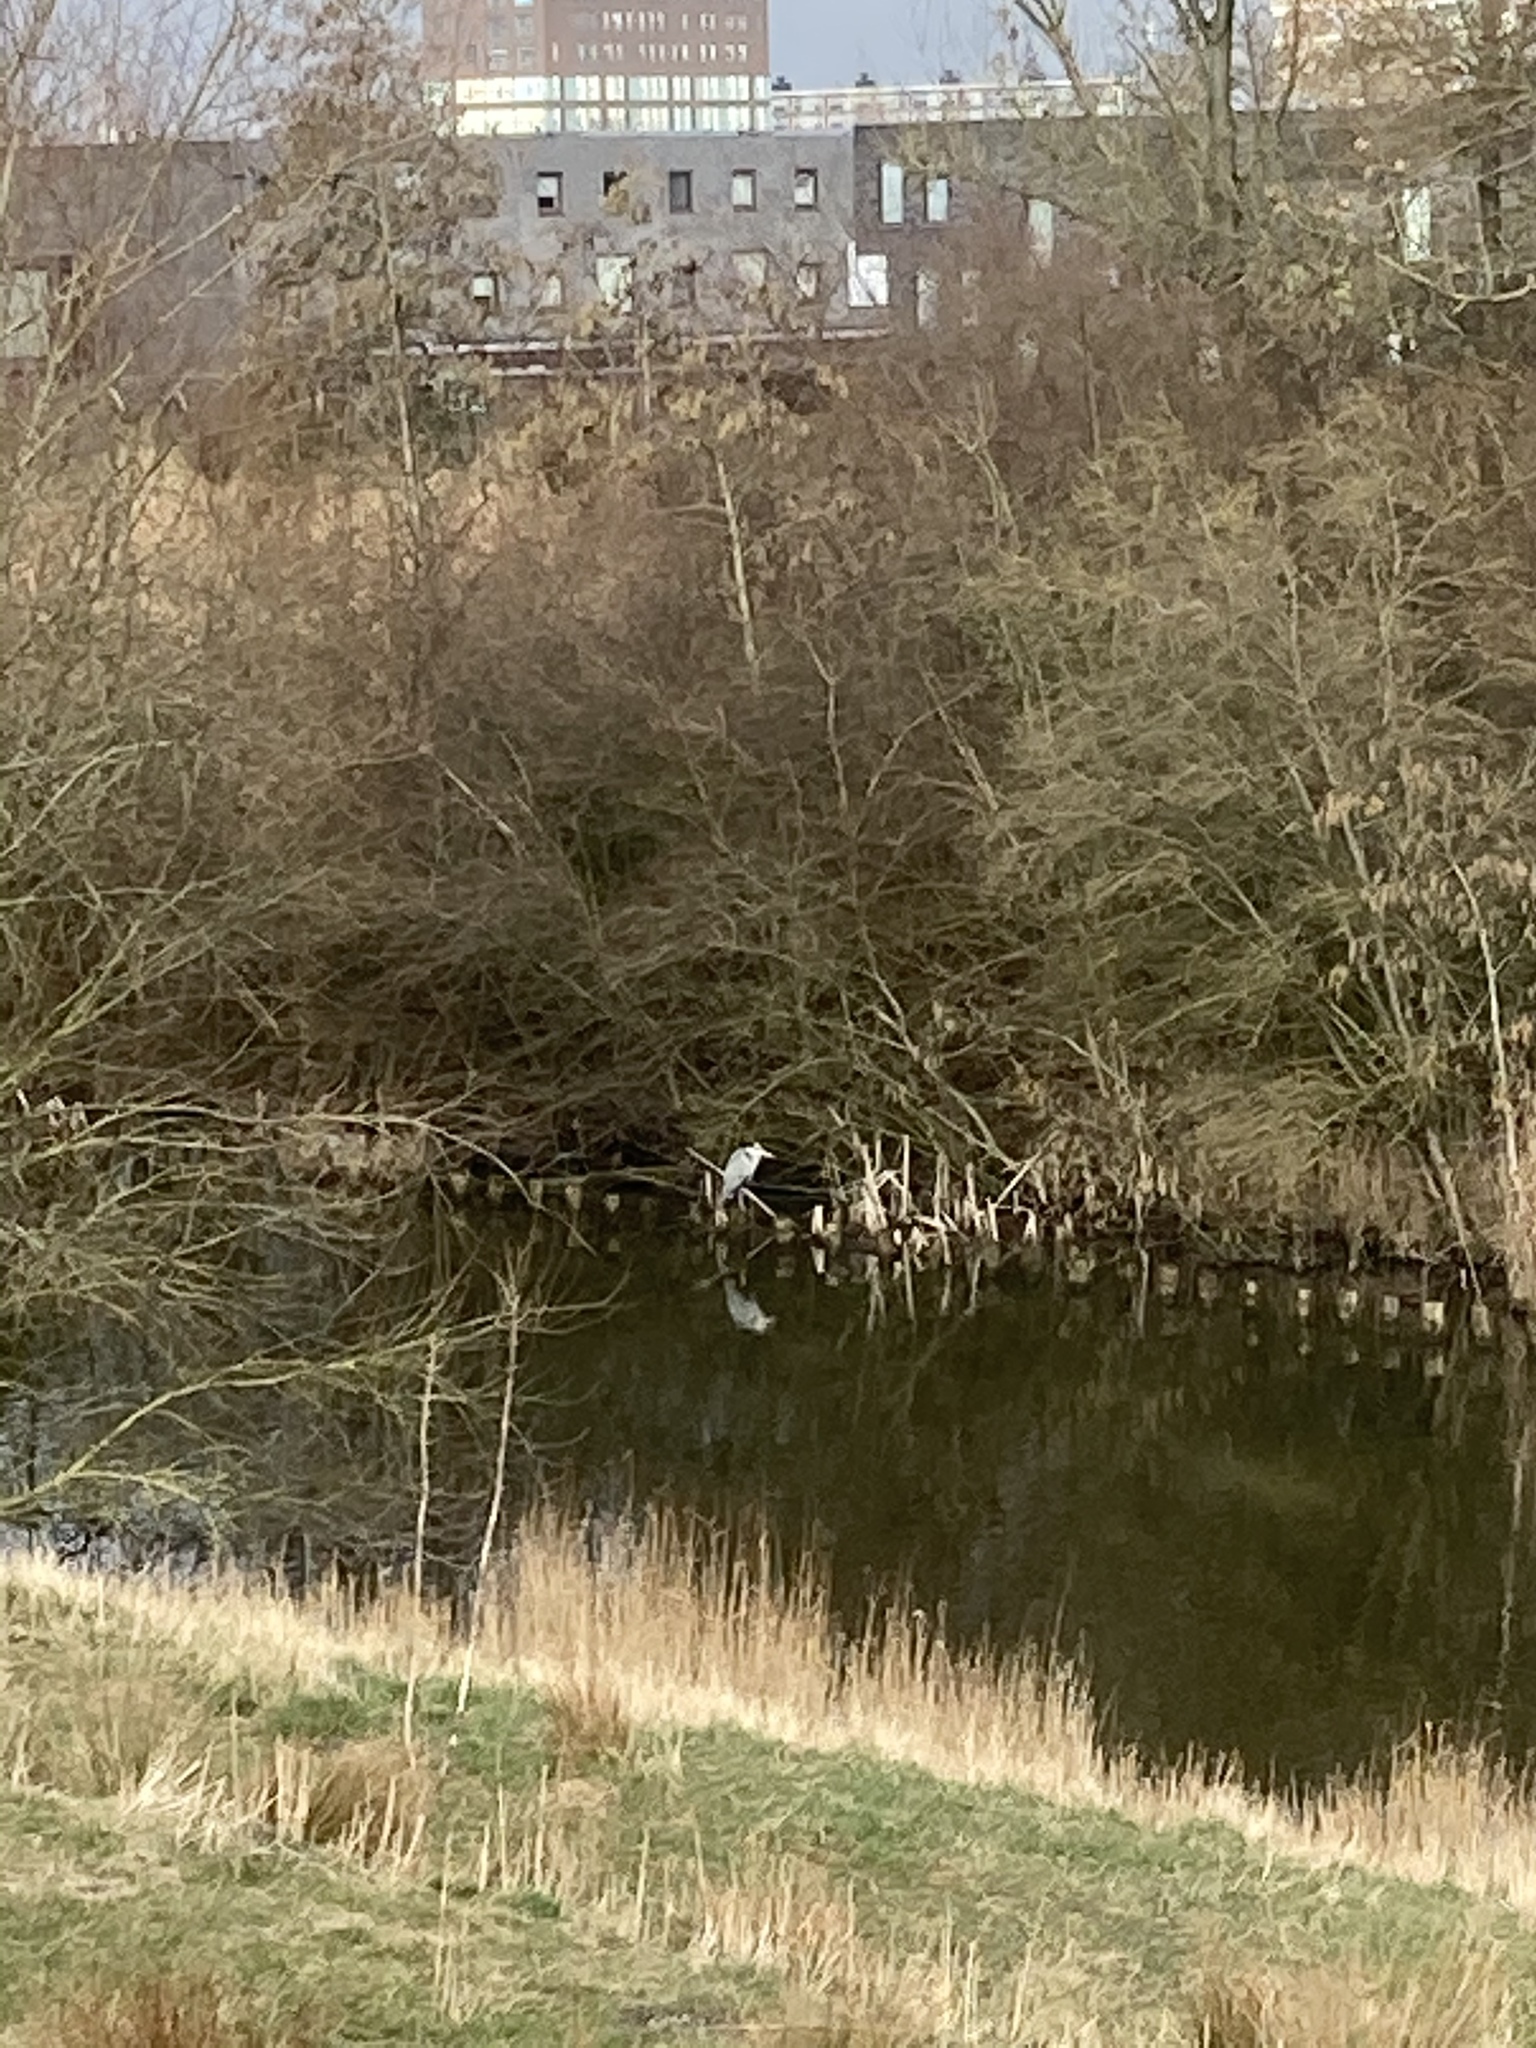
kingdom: Animalia
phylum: Chordata
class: Aves
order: Pelecaniformes
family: Ardeidae
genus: Ardea
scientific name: Ardea cinerea
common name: Grey heron
